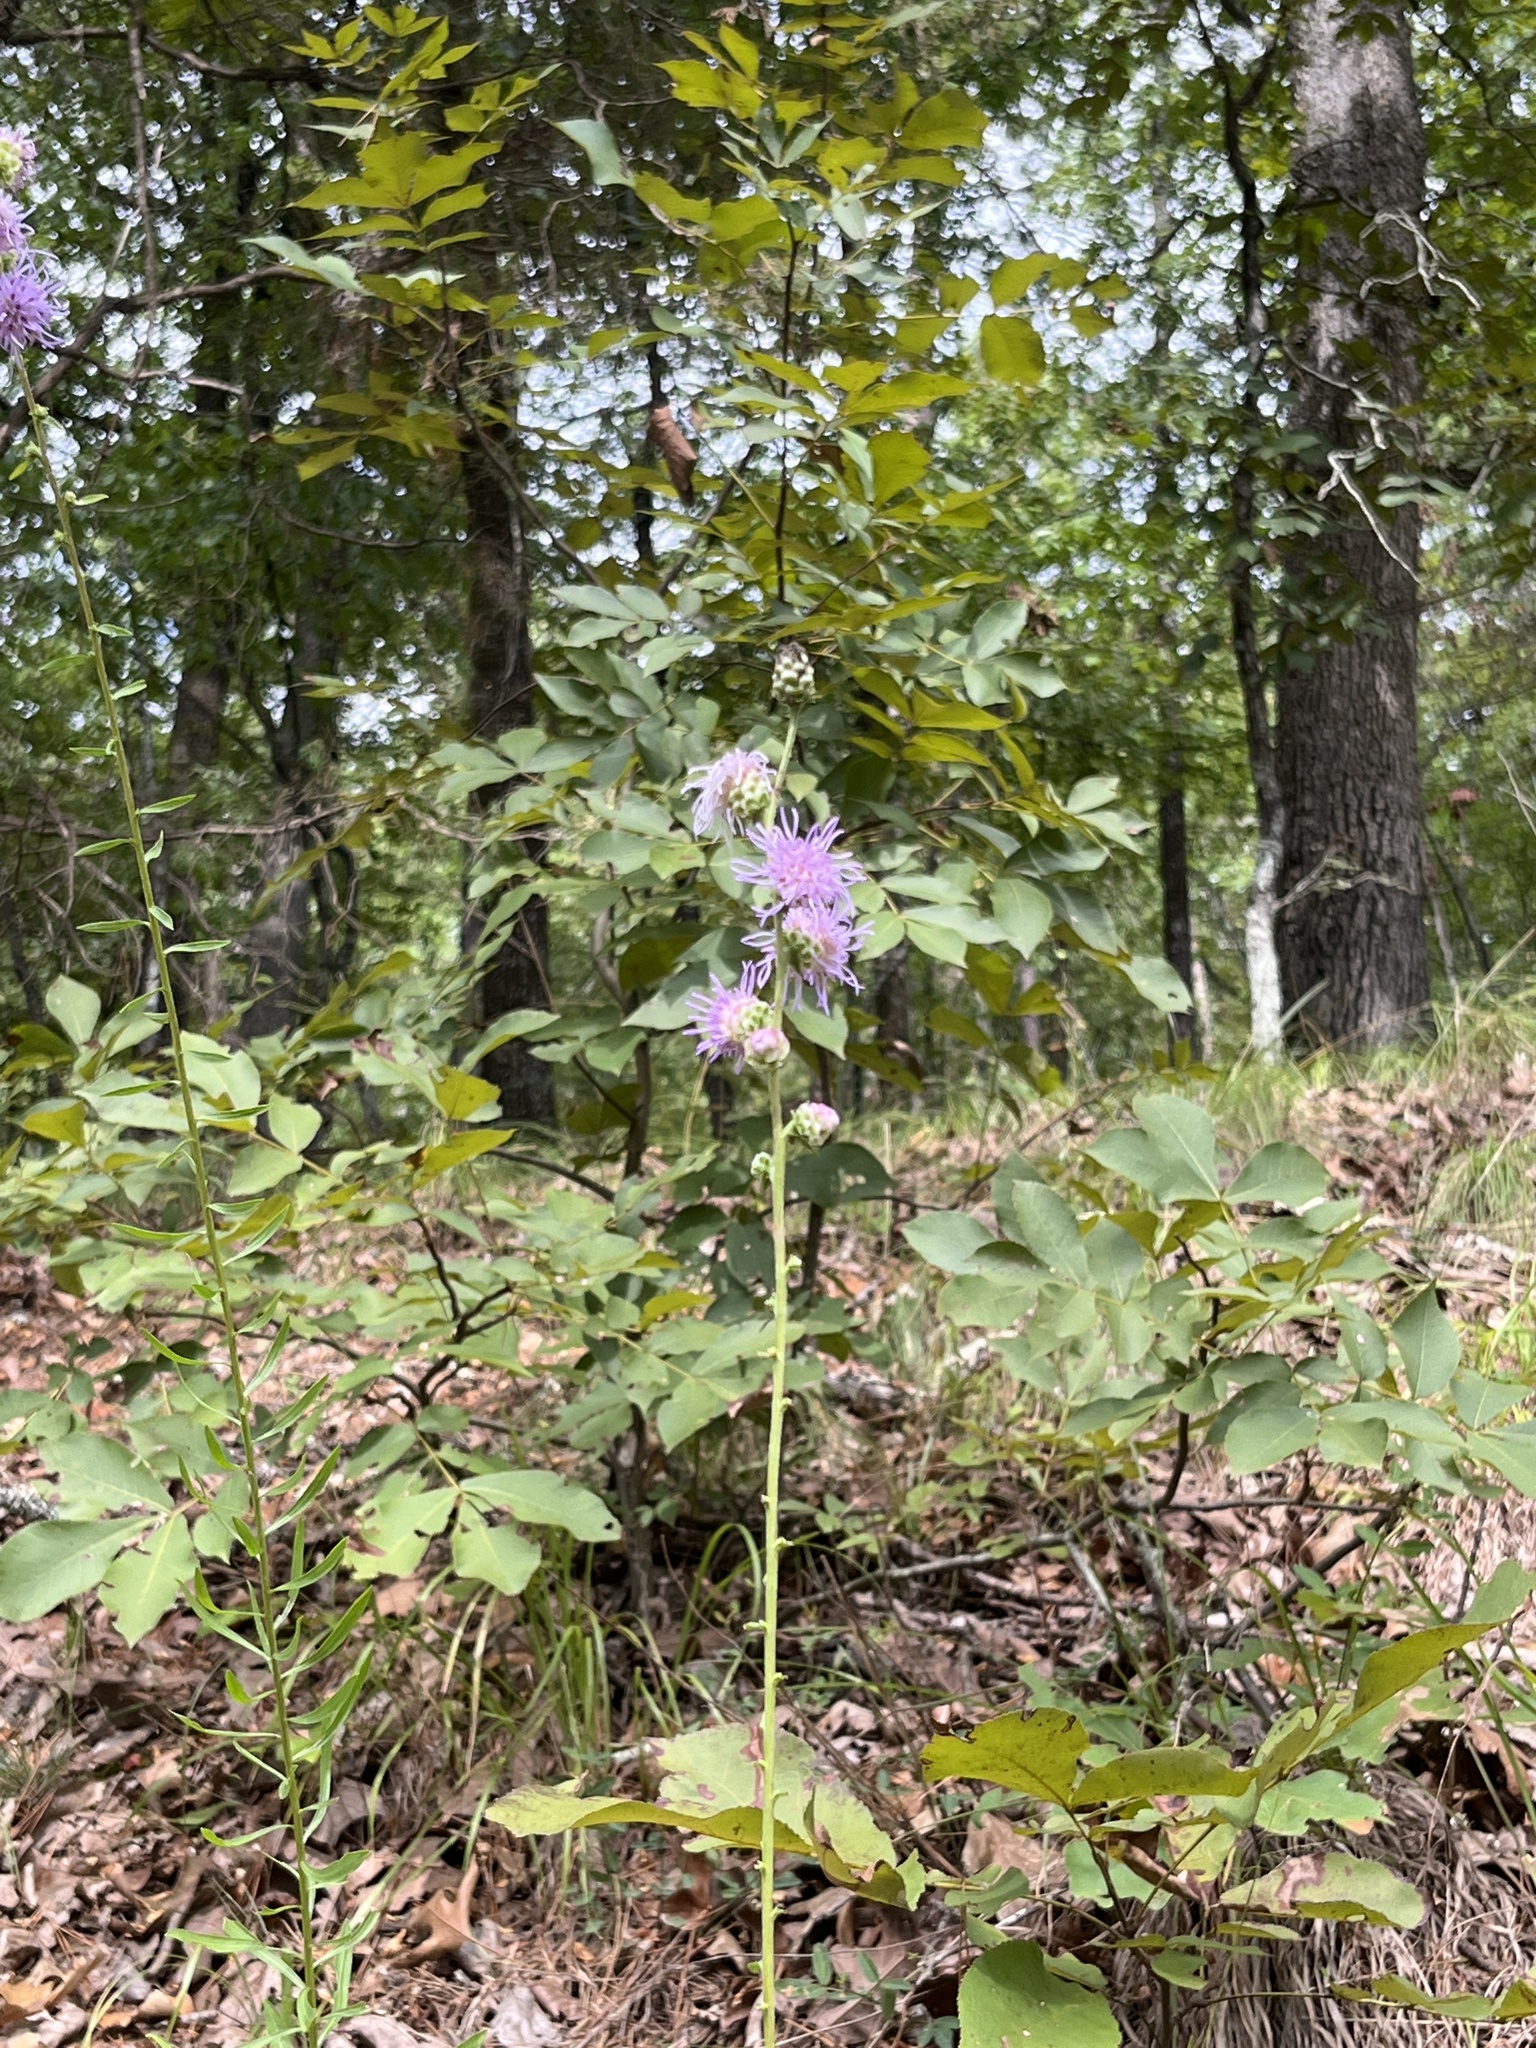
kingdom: Plantae
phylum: Tracheophyta
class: Magnoliopsida
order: Asterales
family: Asteraceae
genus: Liatris
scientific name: Liatris aspera
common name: Lacerate blazing-star
